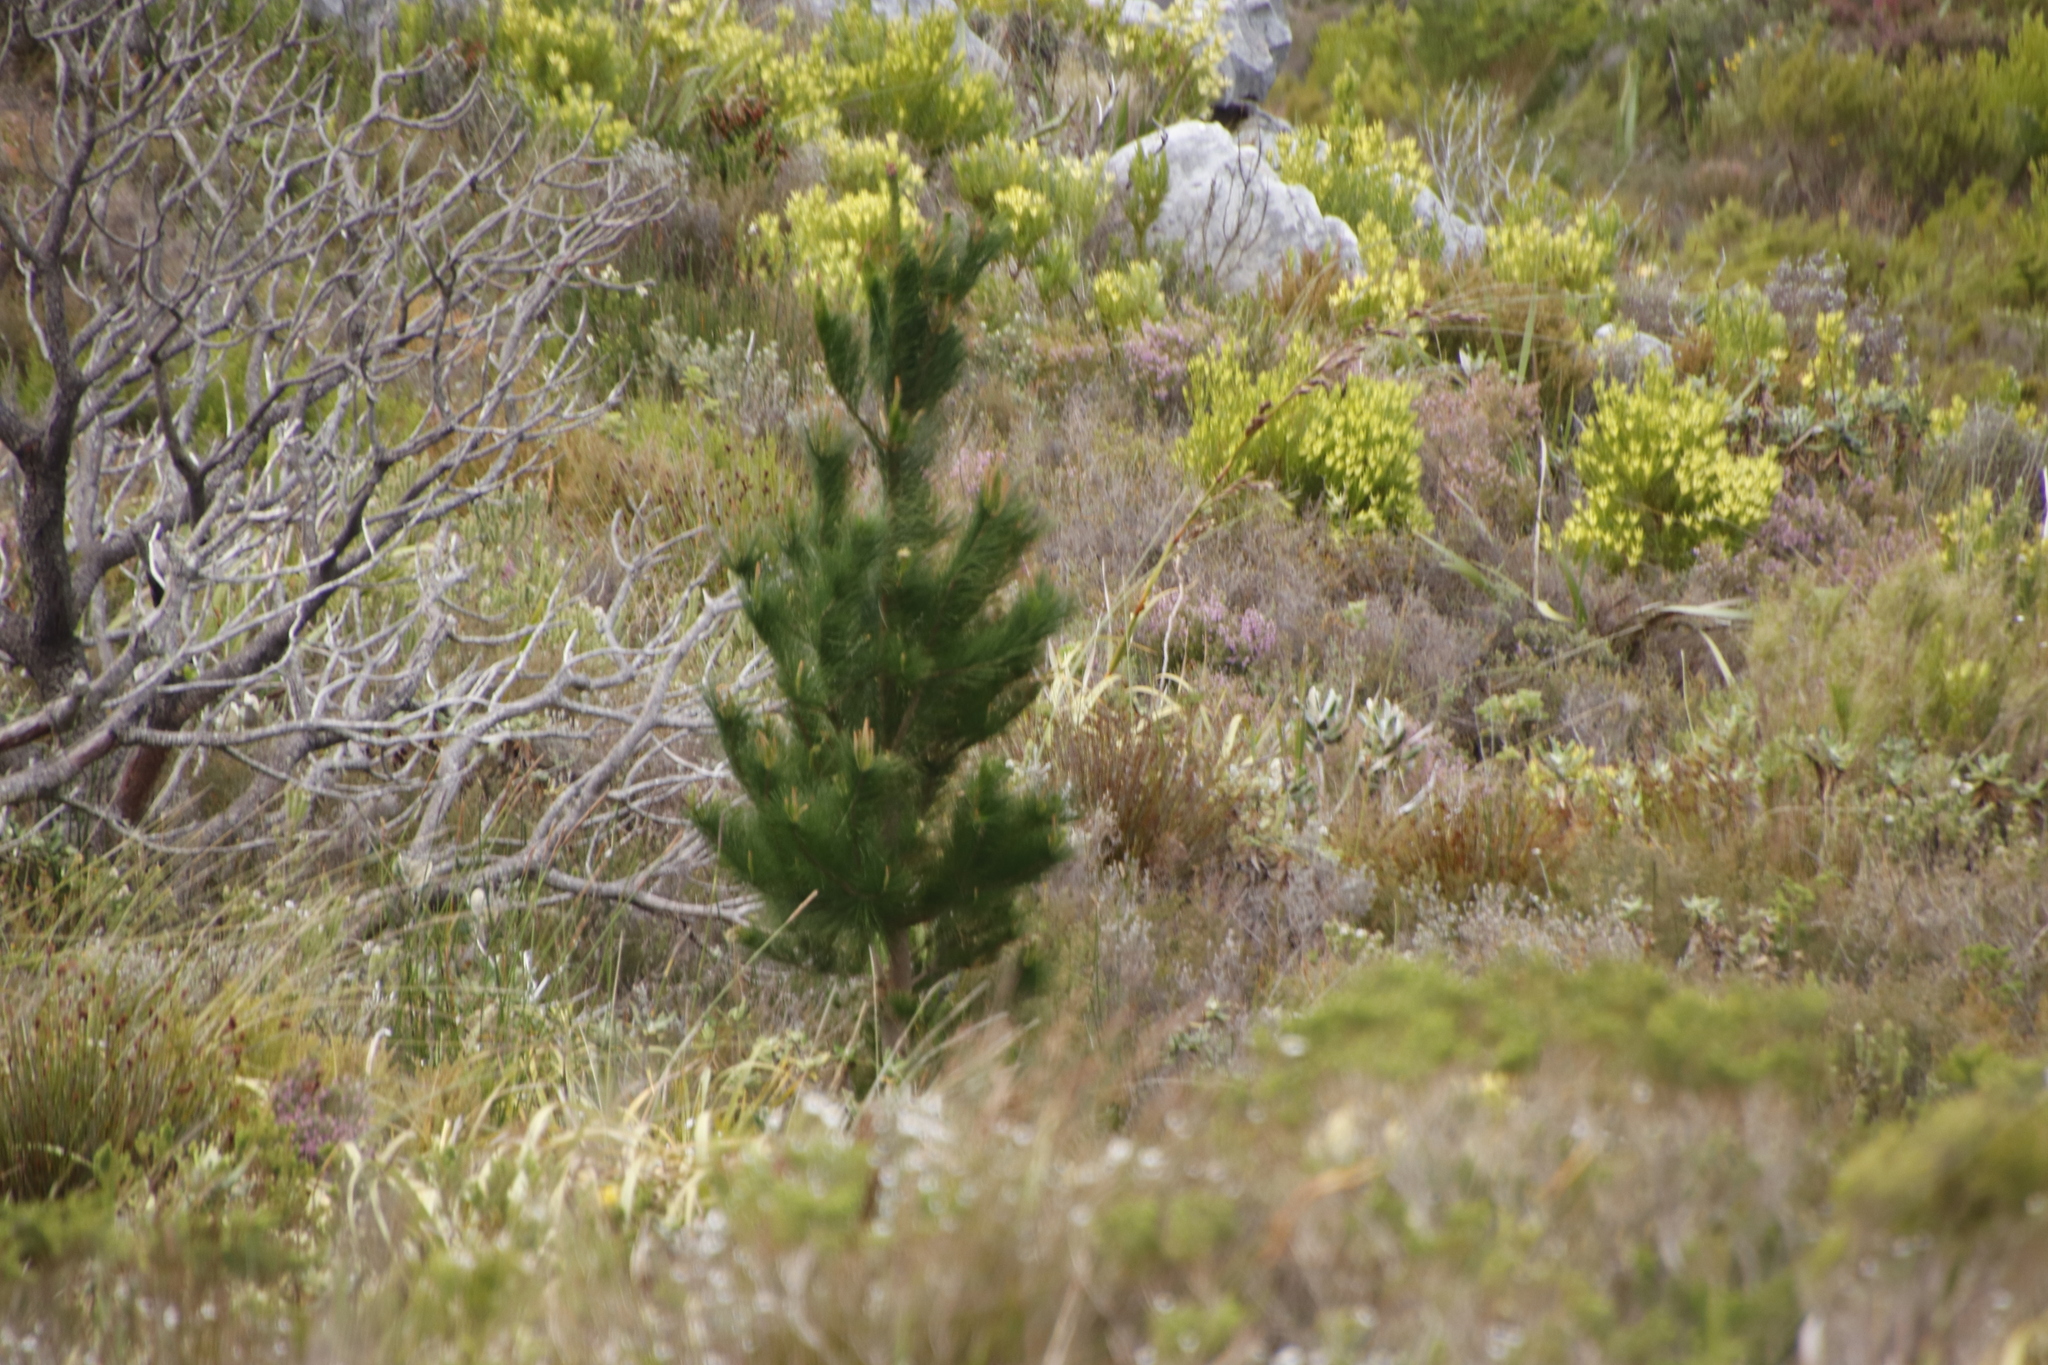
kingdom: Plantae
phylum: Tracheophyta
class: Pinopsida
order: Pinales
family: Pinaceae
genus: Pinus
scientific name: Pinus radiata
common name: Monterey pine
